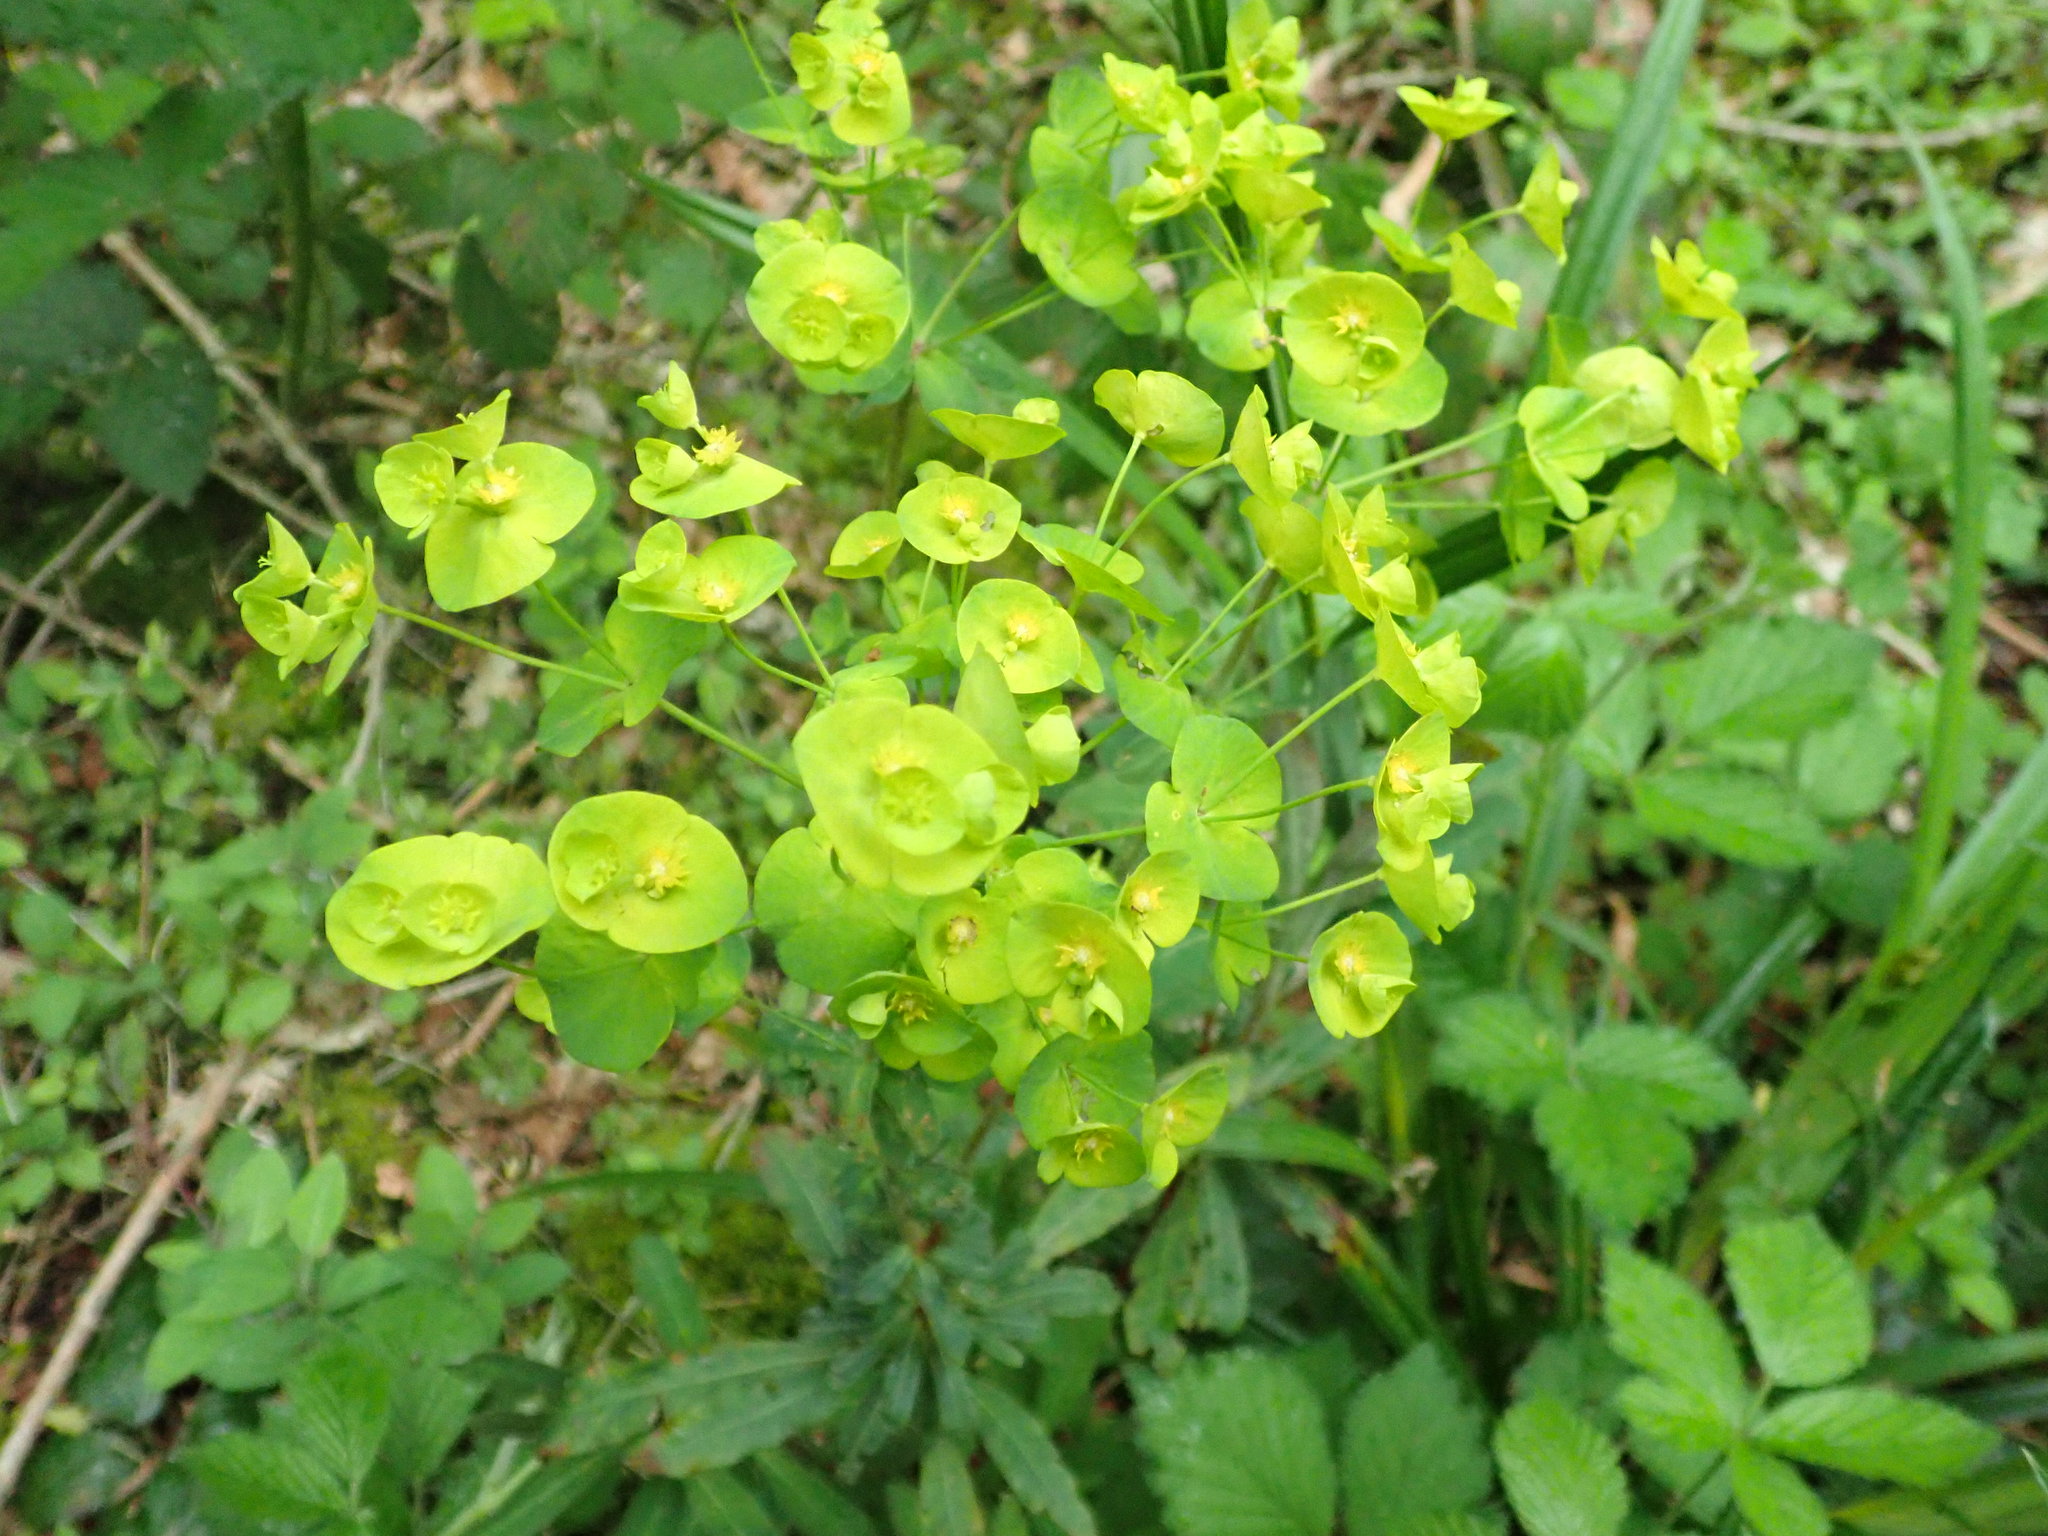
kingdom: Plantae
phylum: Tracheophyta
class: Magnoliopsida
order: Malpighiales
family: Euphorbiaceae
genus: Euphorbia
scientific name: Euphorbia amygdaloides
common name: Wood spurge
